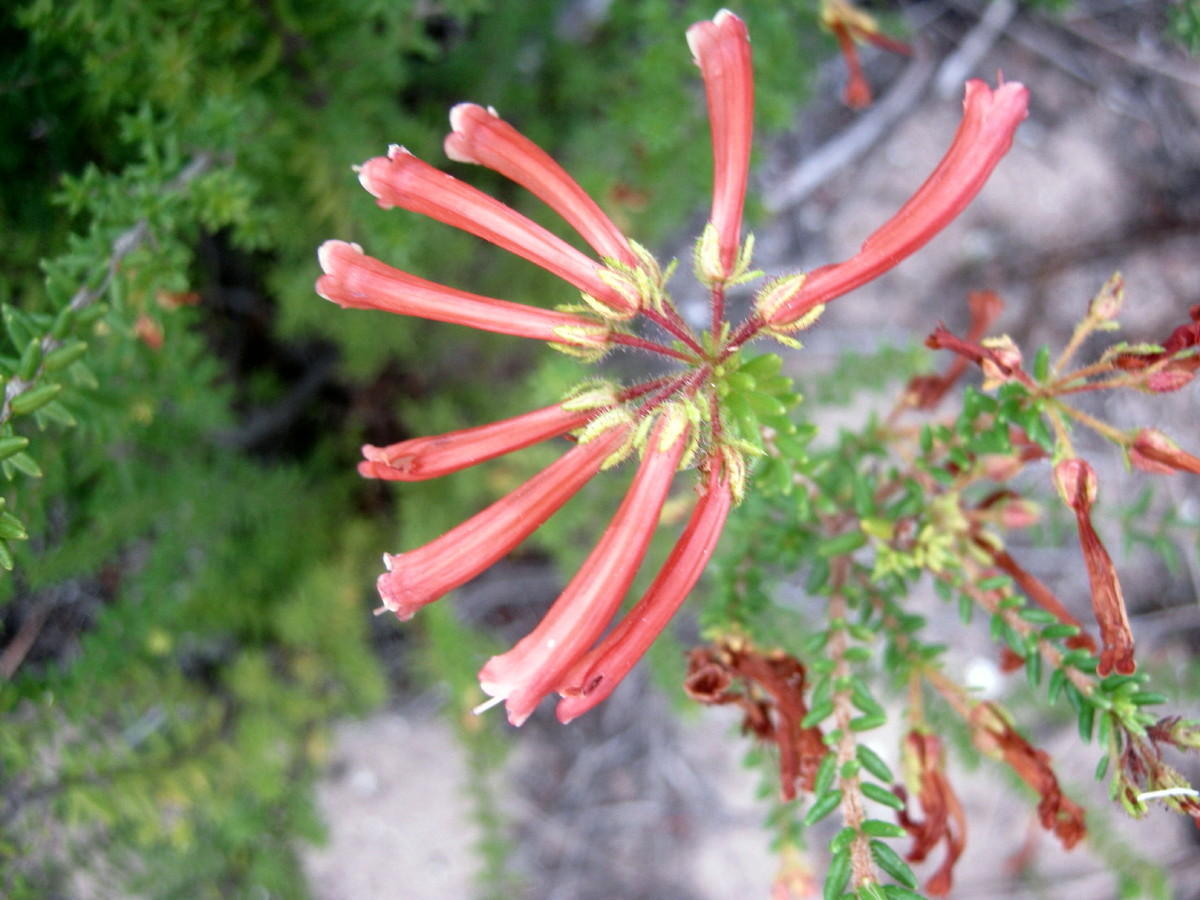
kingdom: Plantae
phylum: Tracheophyta
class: Magnoliopsida
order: Ericales
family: Ericaceae
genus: Erica
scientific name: Erica glandulosa
